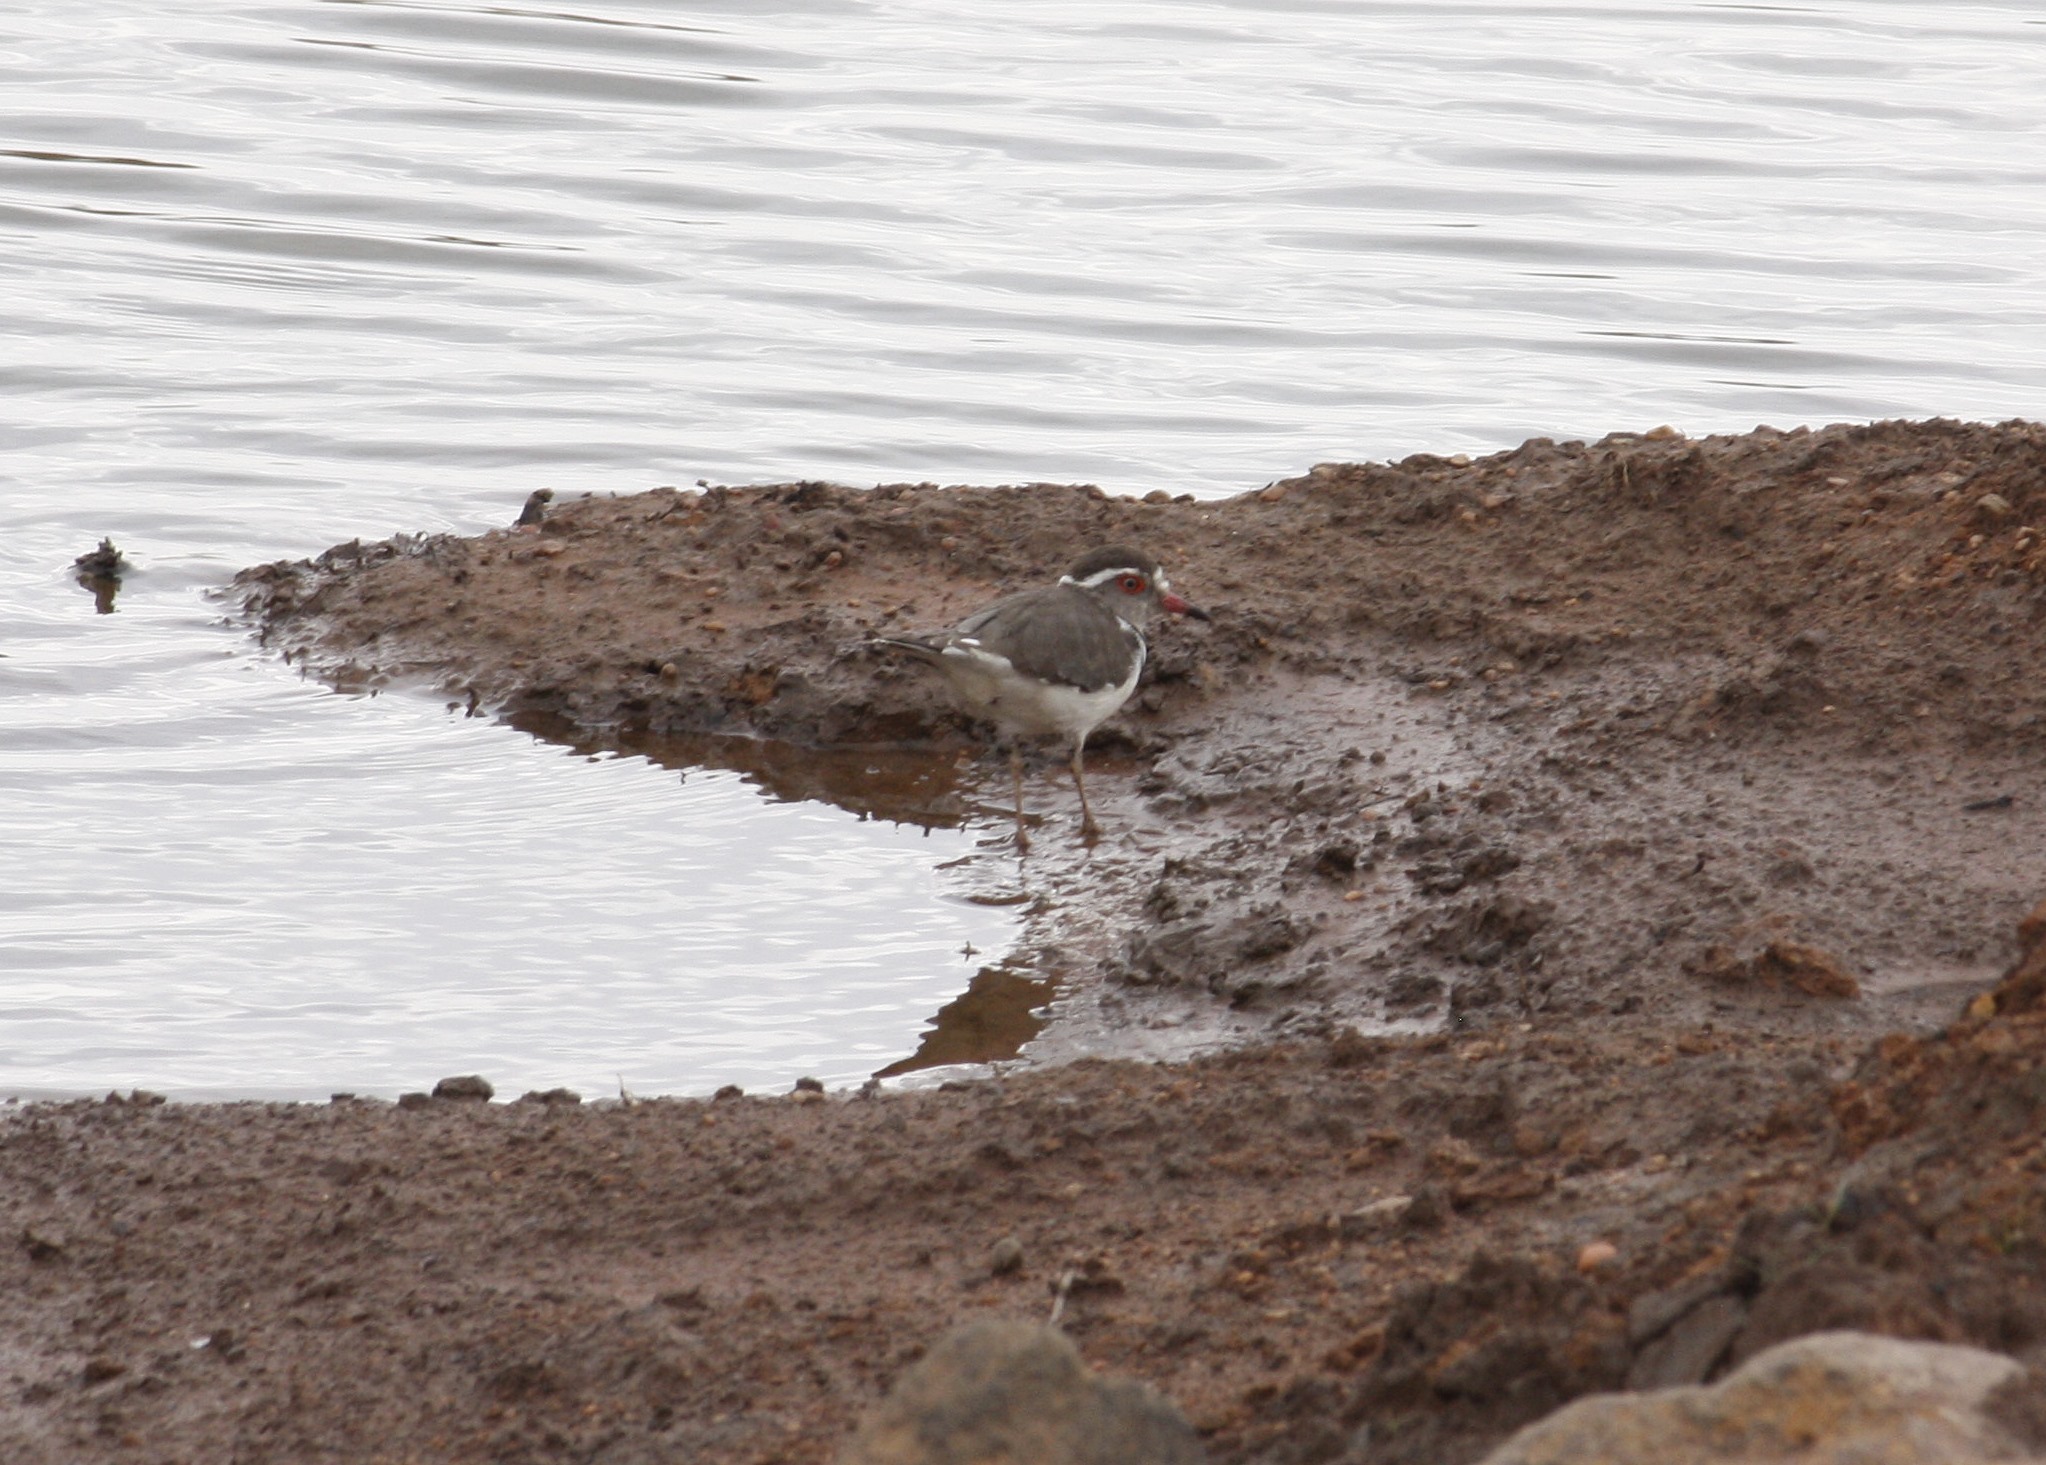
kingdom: Animalia
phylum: Chordata
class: Aves
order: Charadriiformes
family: Charadriidae
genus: Charadrius
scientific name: Charadrius tricollaris
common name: Three-banded plover
